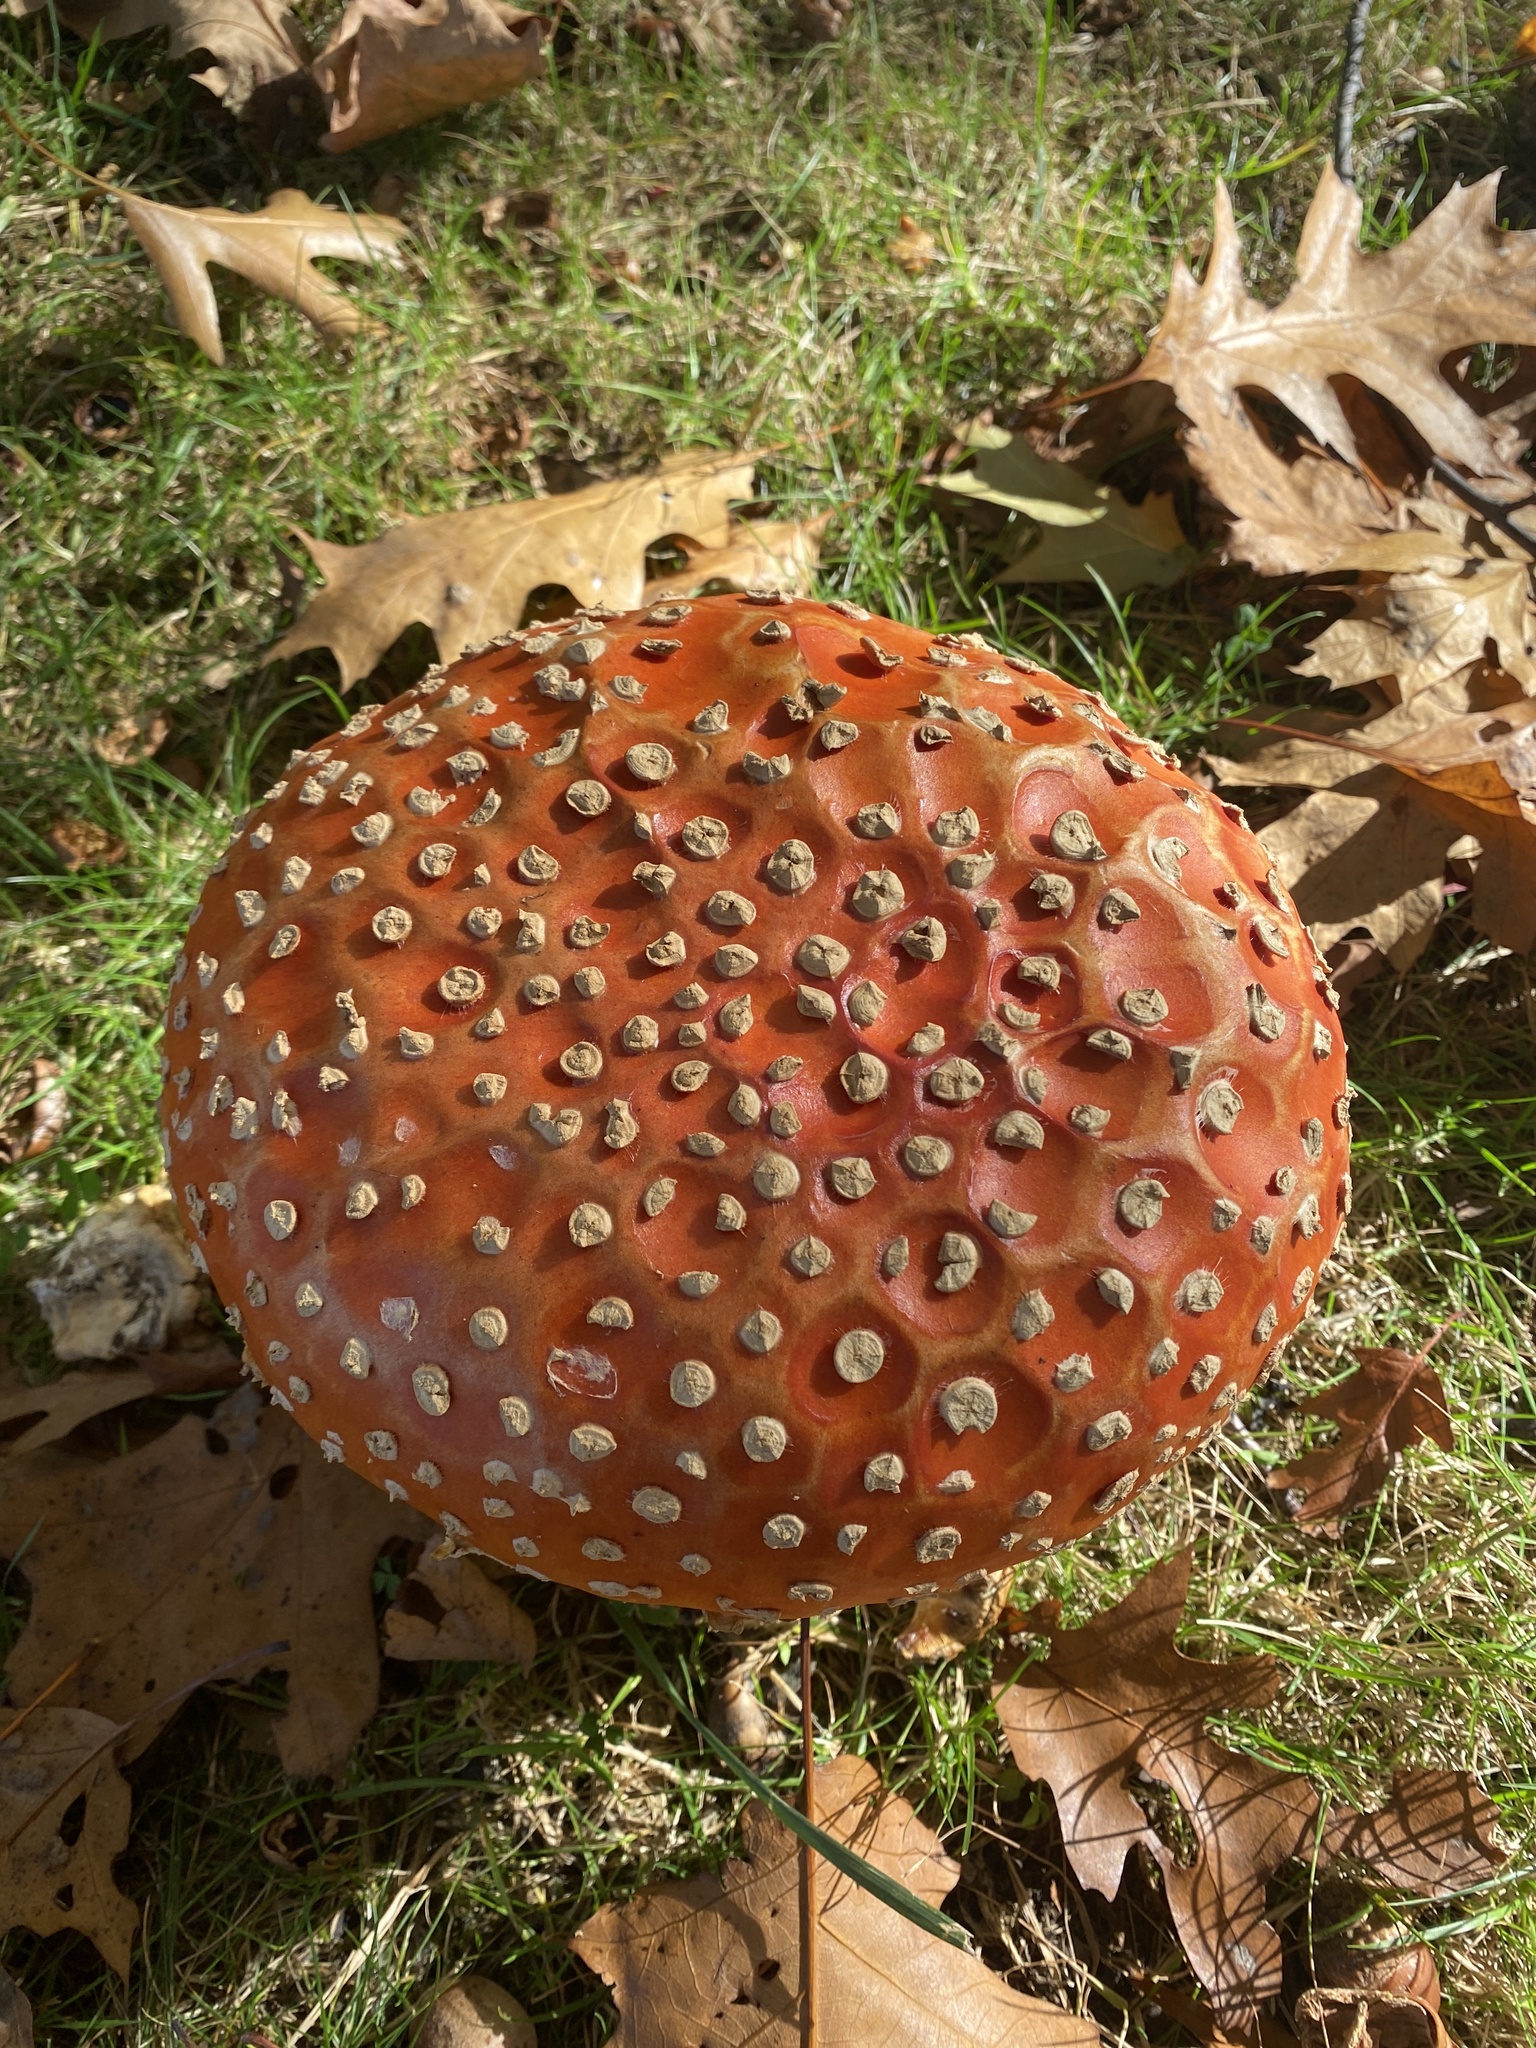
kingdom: Fungi
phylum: Basidiomycota
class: Agaricomycetes
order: Agaricales
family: Amanitaceae
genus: Amanita
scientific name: Amanita muscaria
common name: Fly agaric
